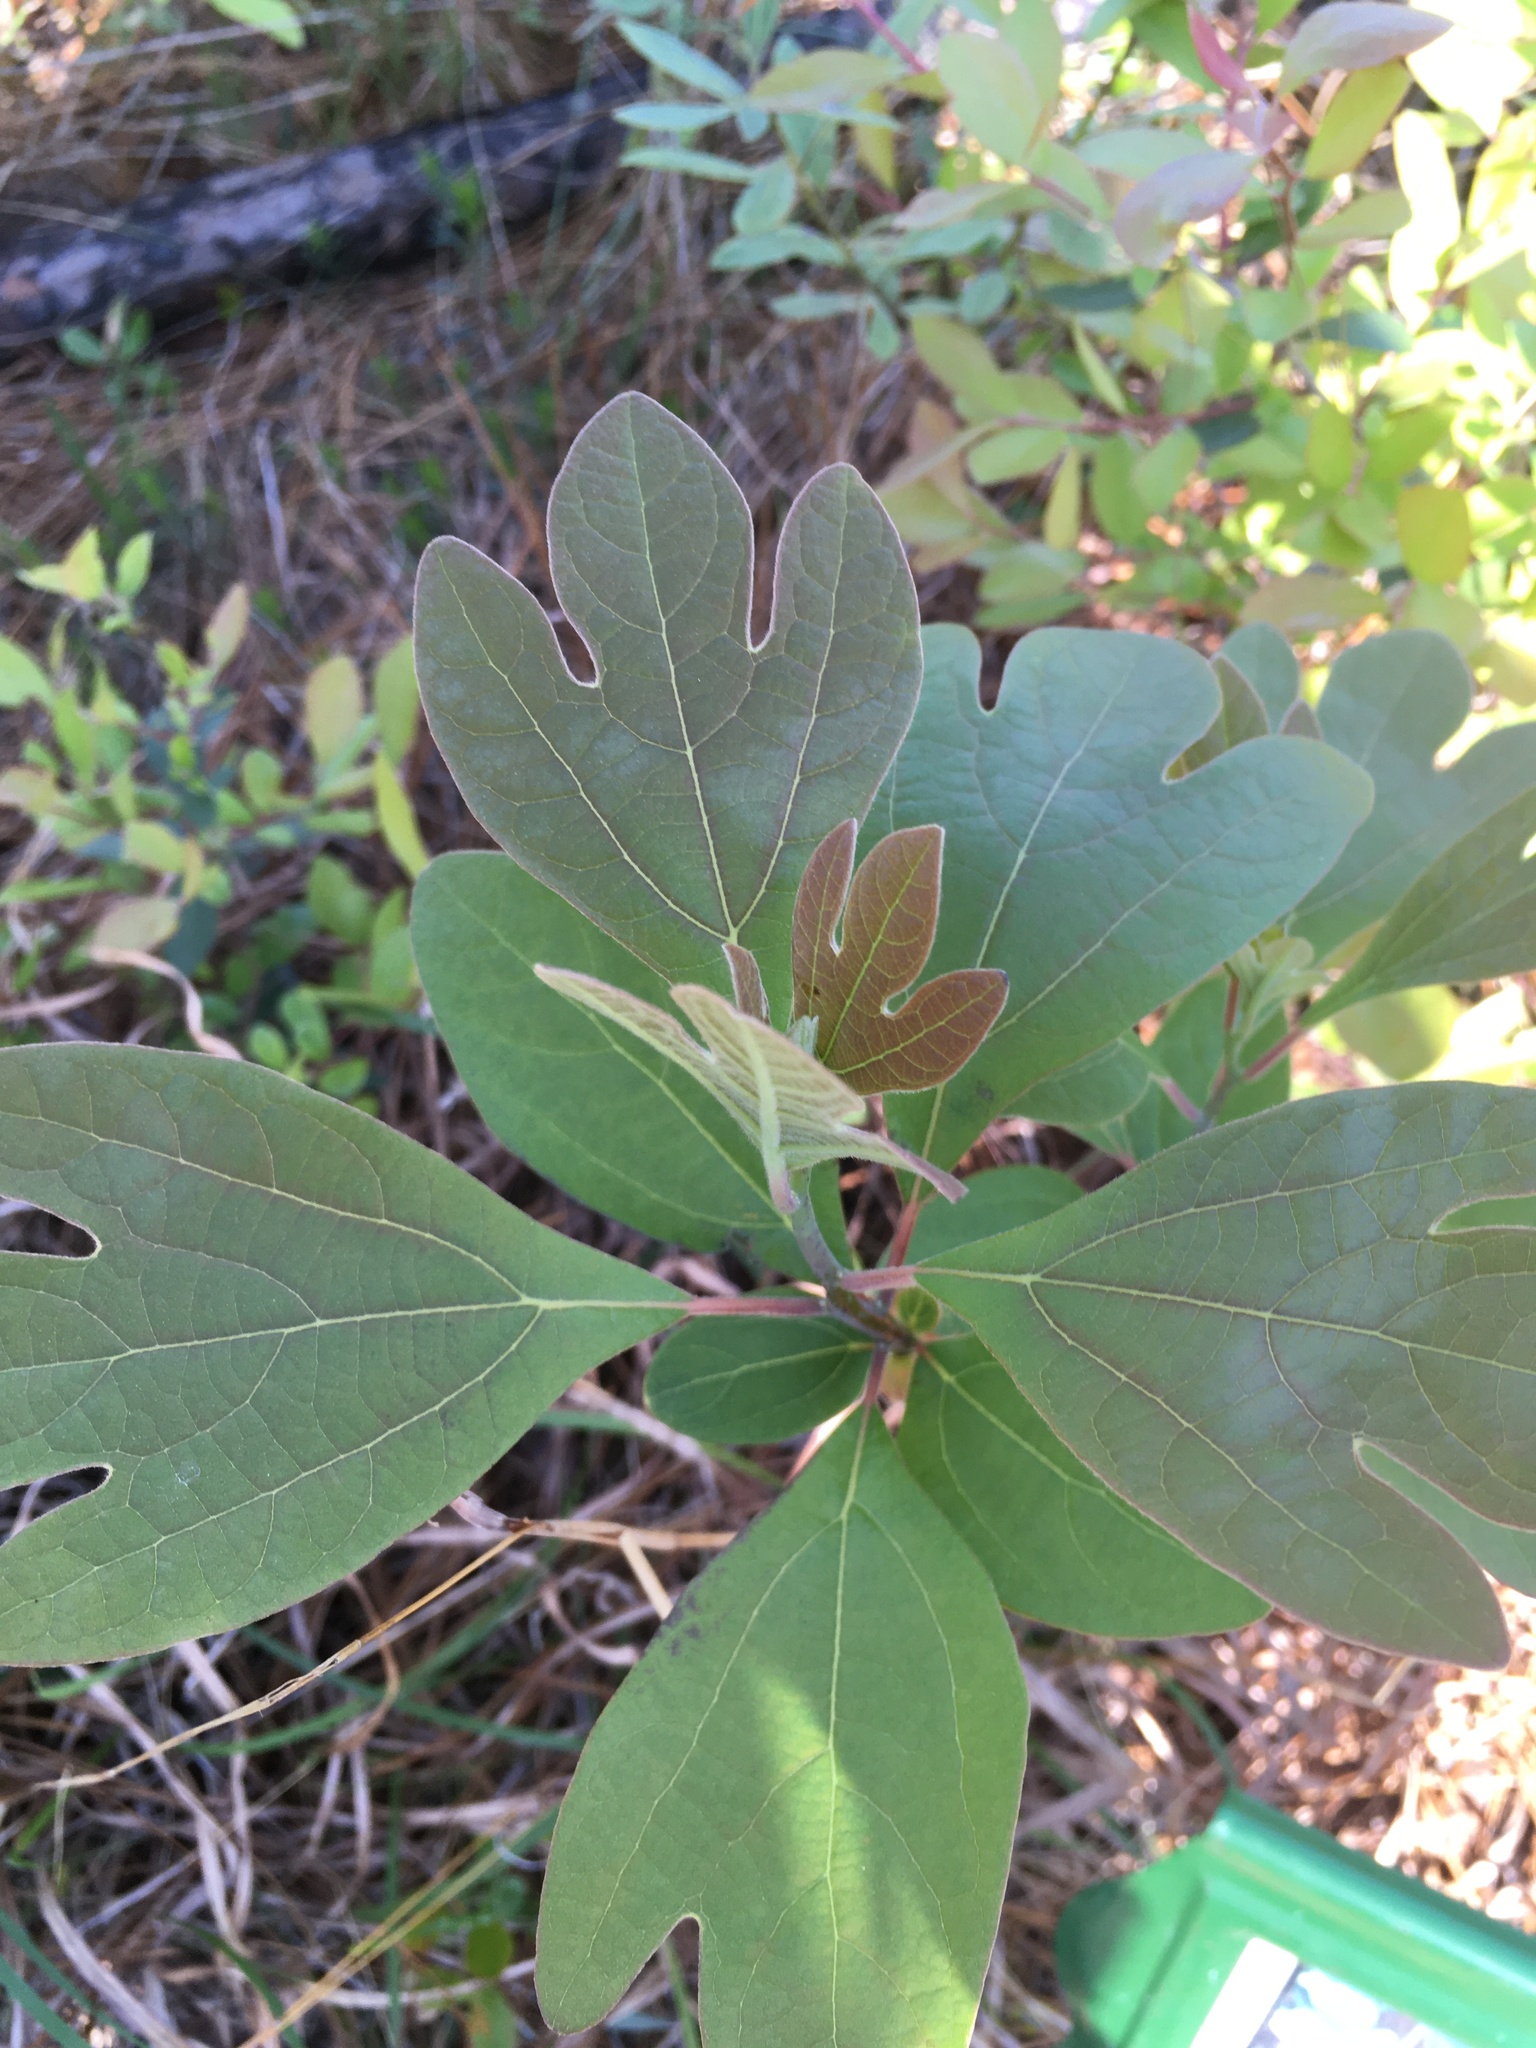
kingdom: Plantae
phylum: Tracheophyta
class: Magnoliopsida
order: Laurales
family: Lauraceae
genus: Sassafras
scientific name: Sassafras albidum
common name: Sassafras
